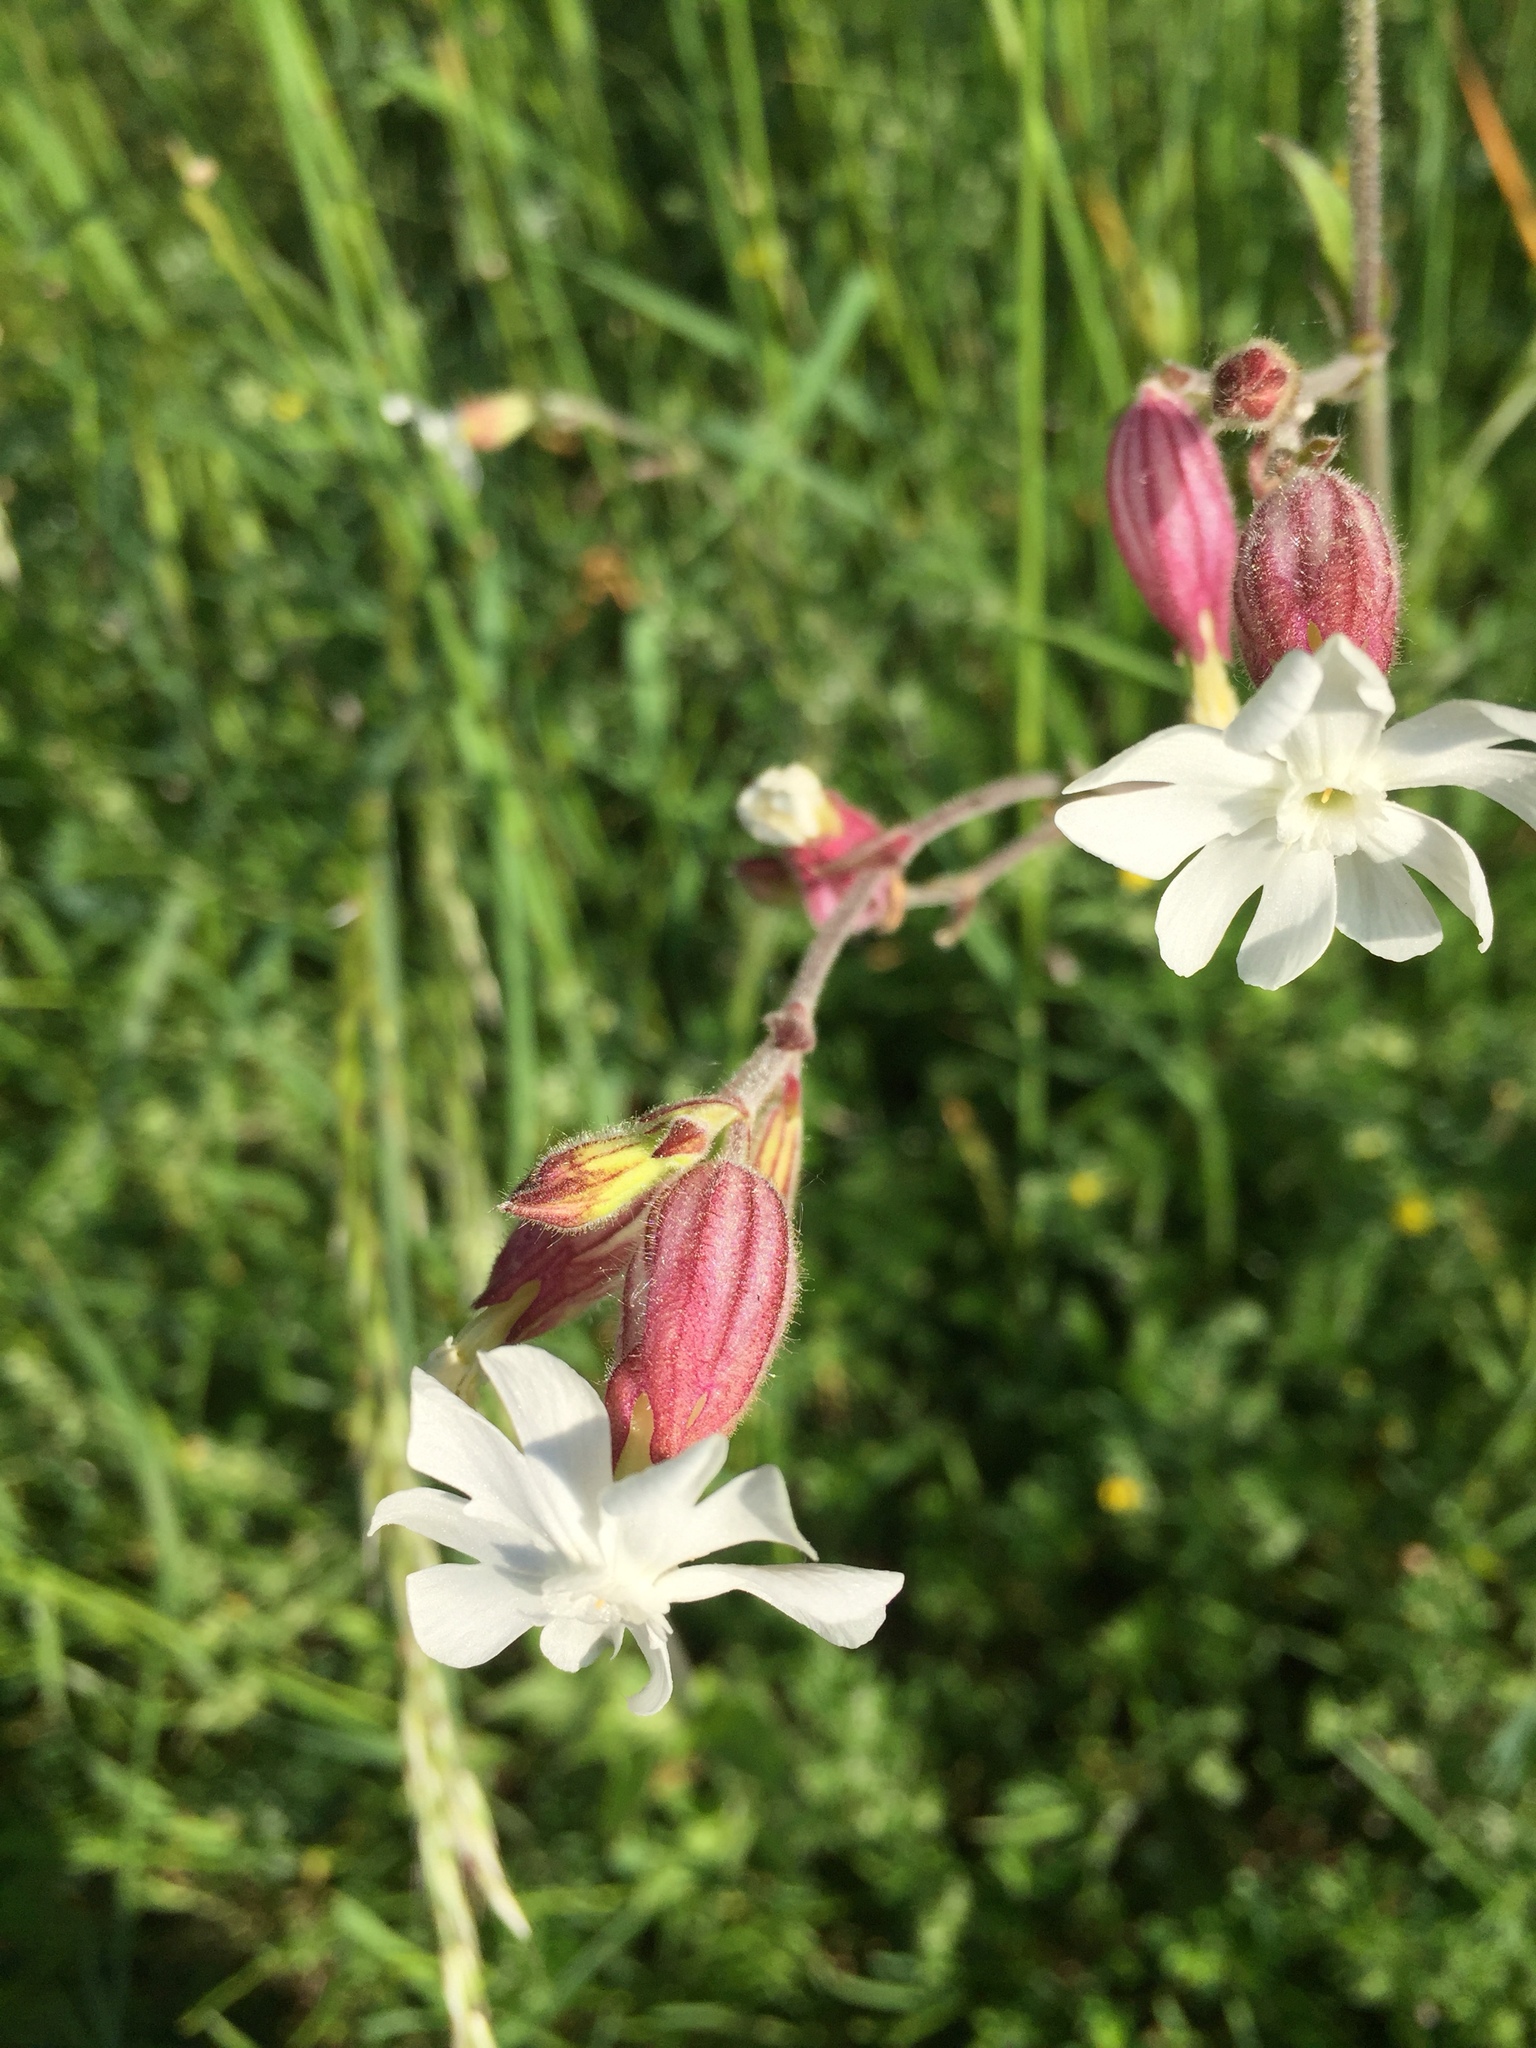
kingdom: Plantae
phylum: Tracheophyta
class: Magnoliopsida
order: Caryophyllales
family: Caryophyllaceae
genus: Silene
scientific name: Silene latifolia
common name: White campion
